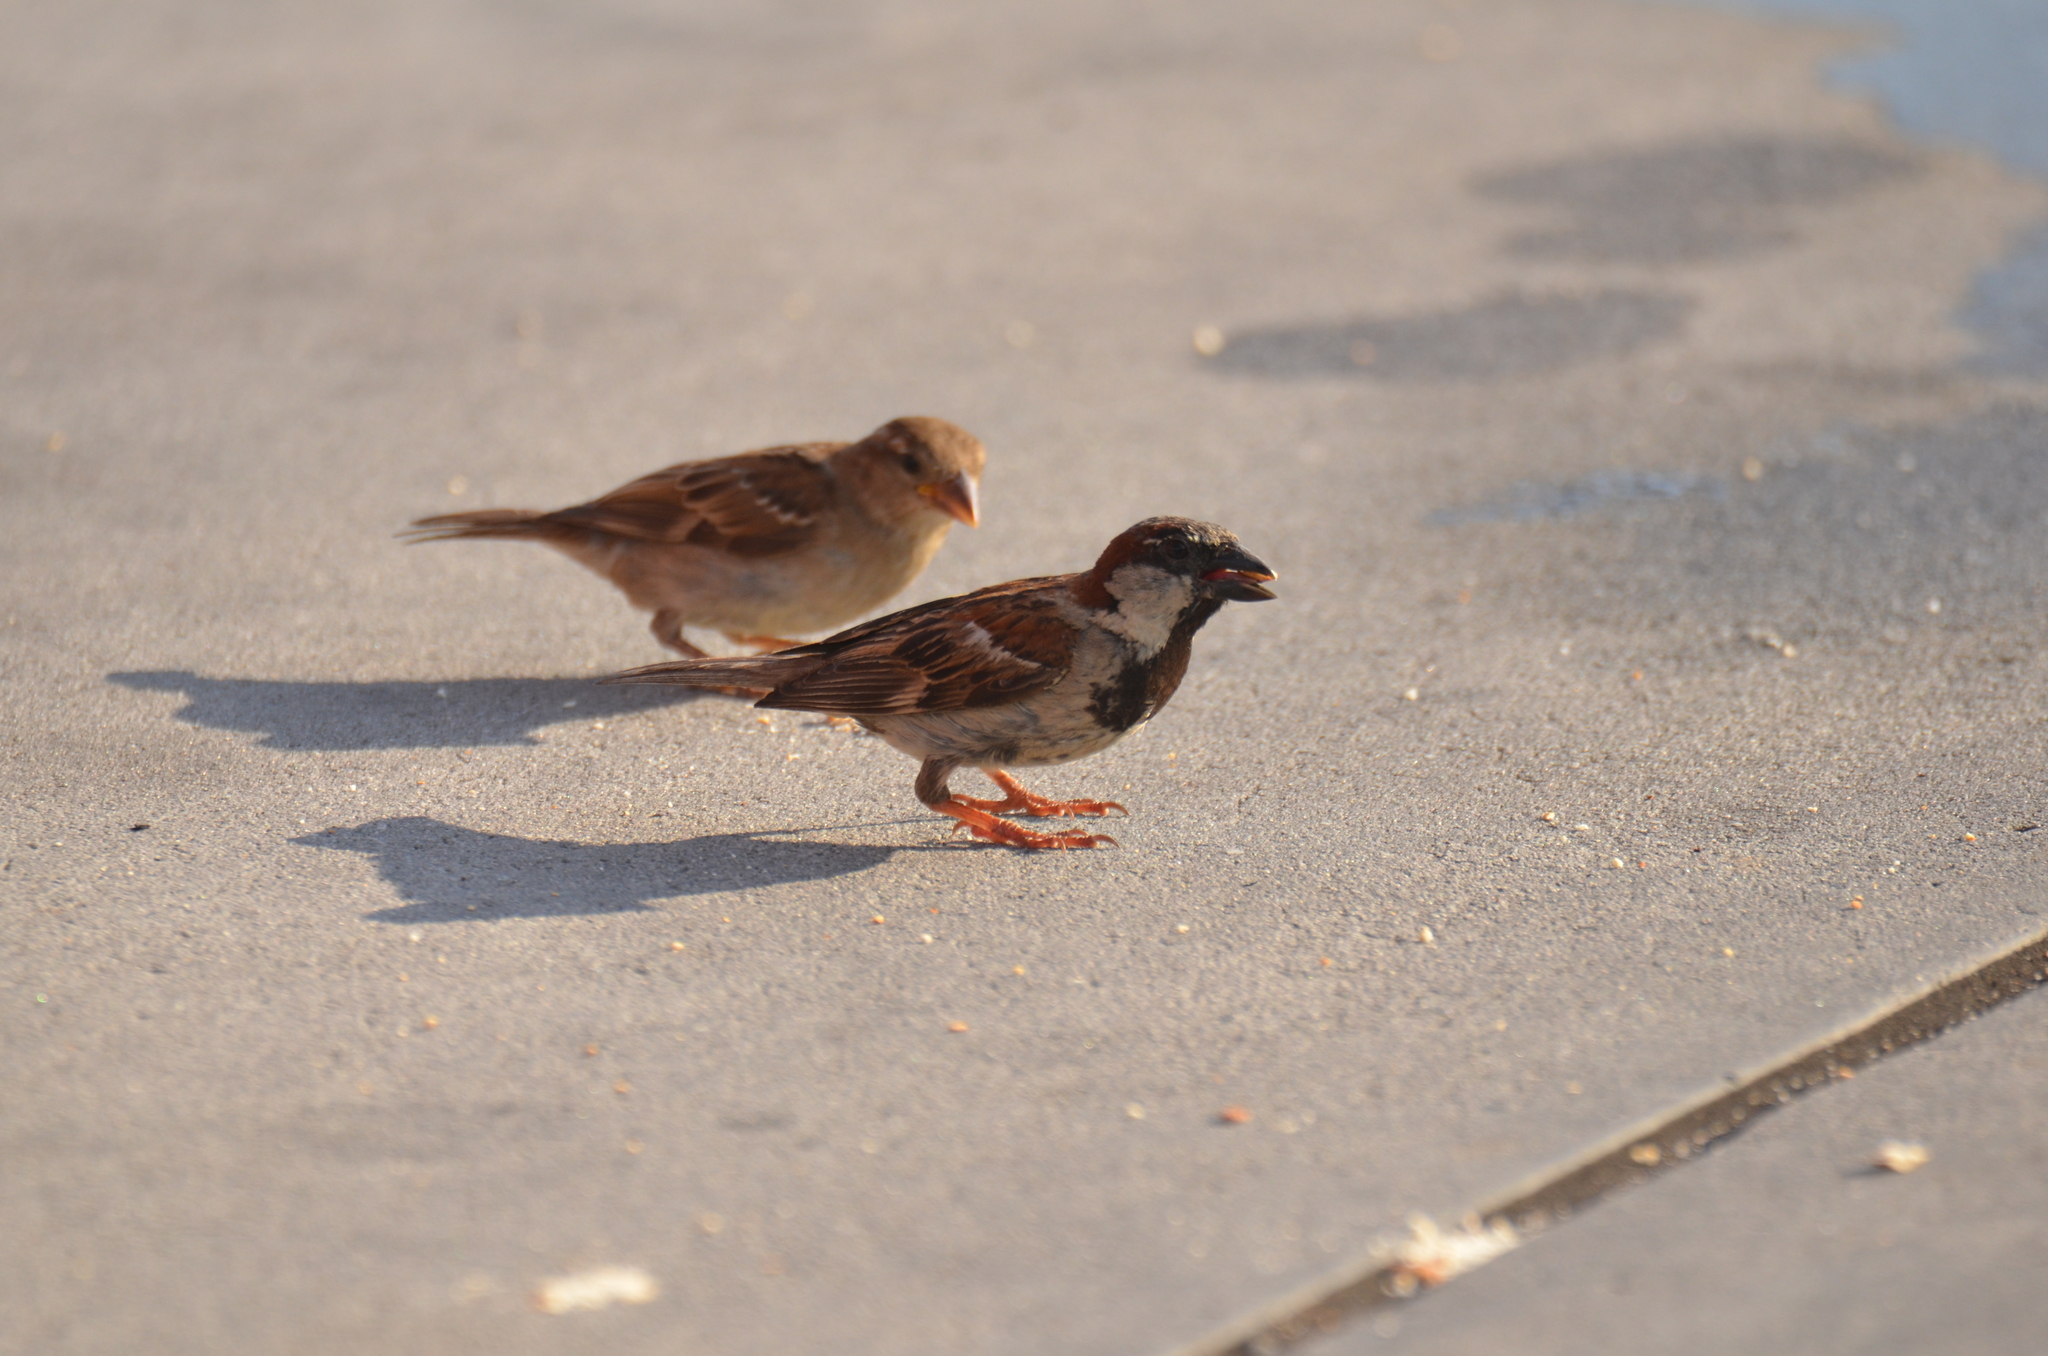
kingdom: Animalia
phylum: Chordata
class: Aves
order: Passeriformes
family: Passeridae
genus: Passer
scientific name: Passer domesticus
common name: House sparrow
